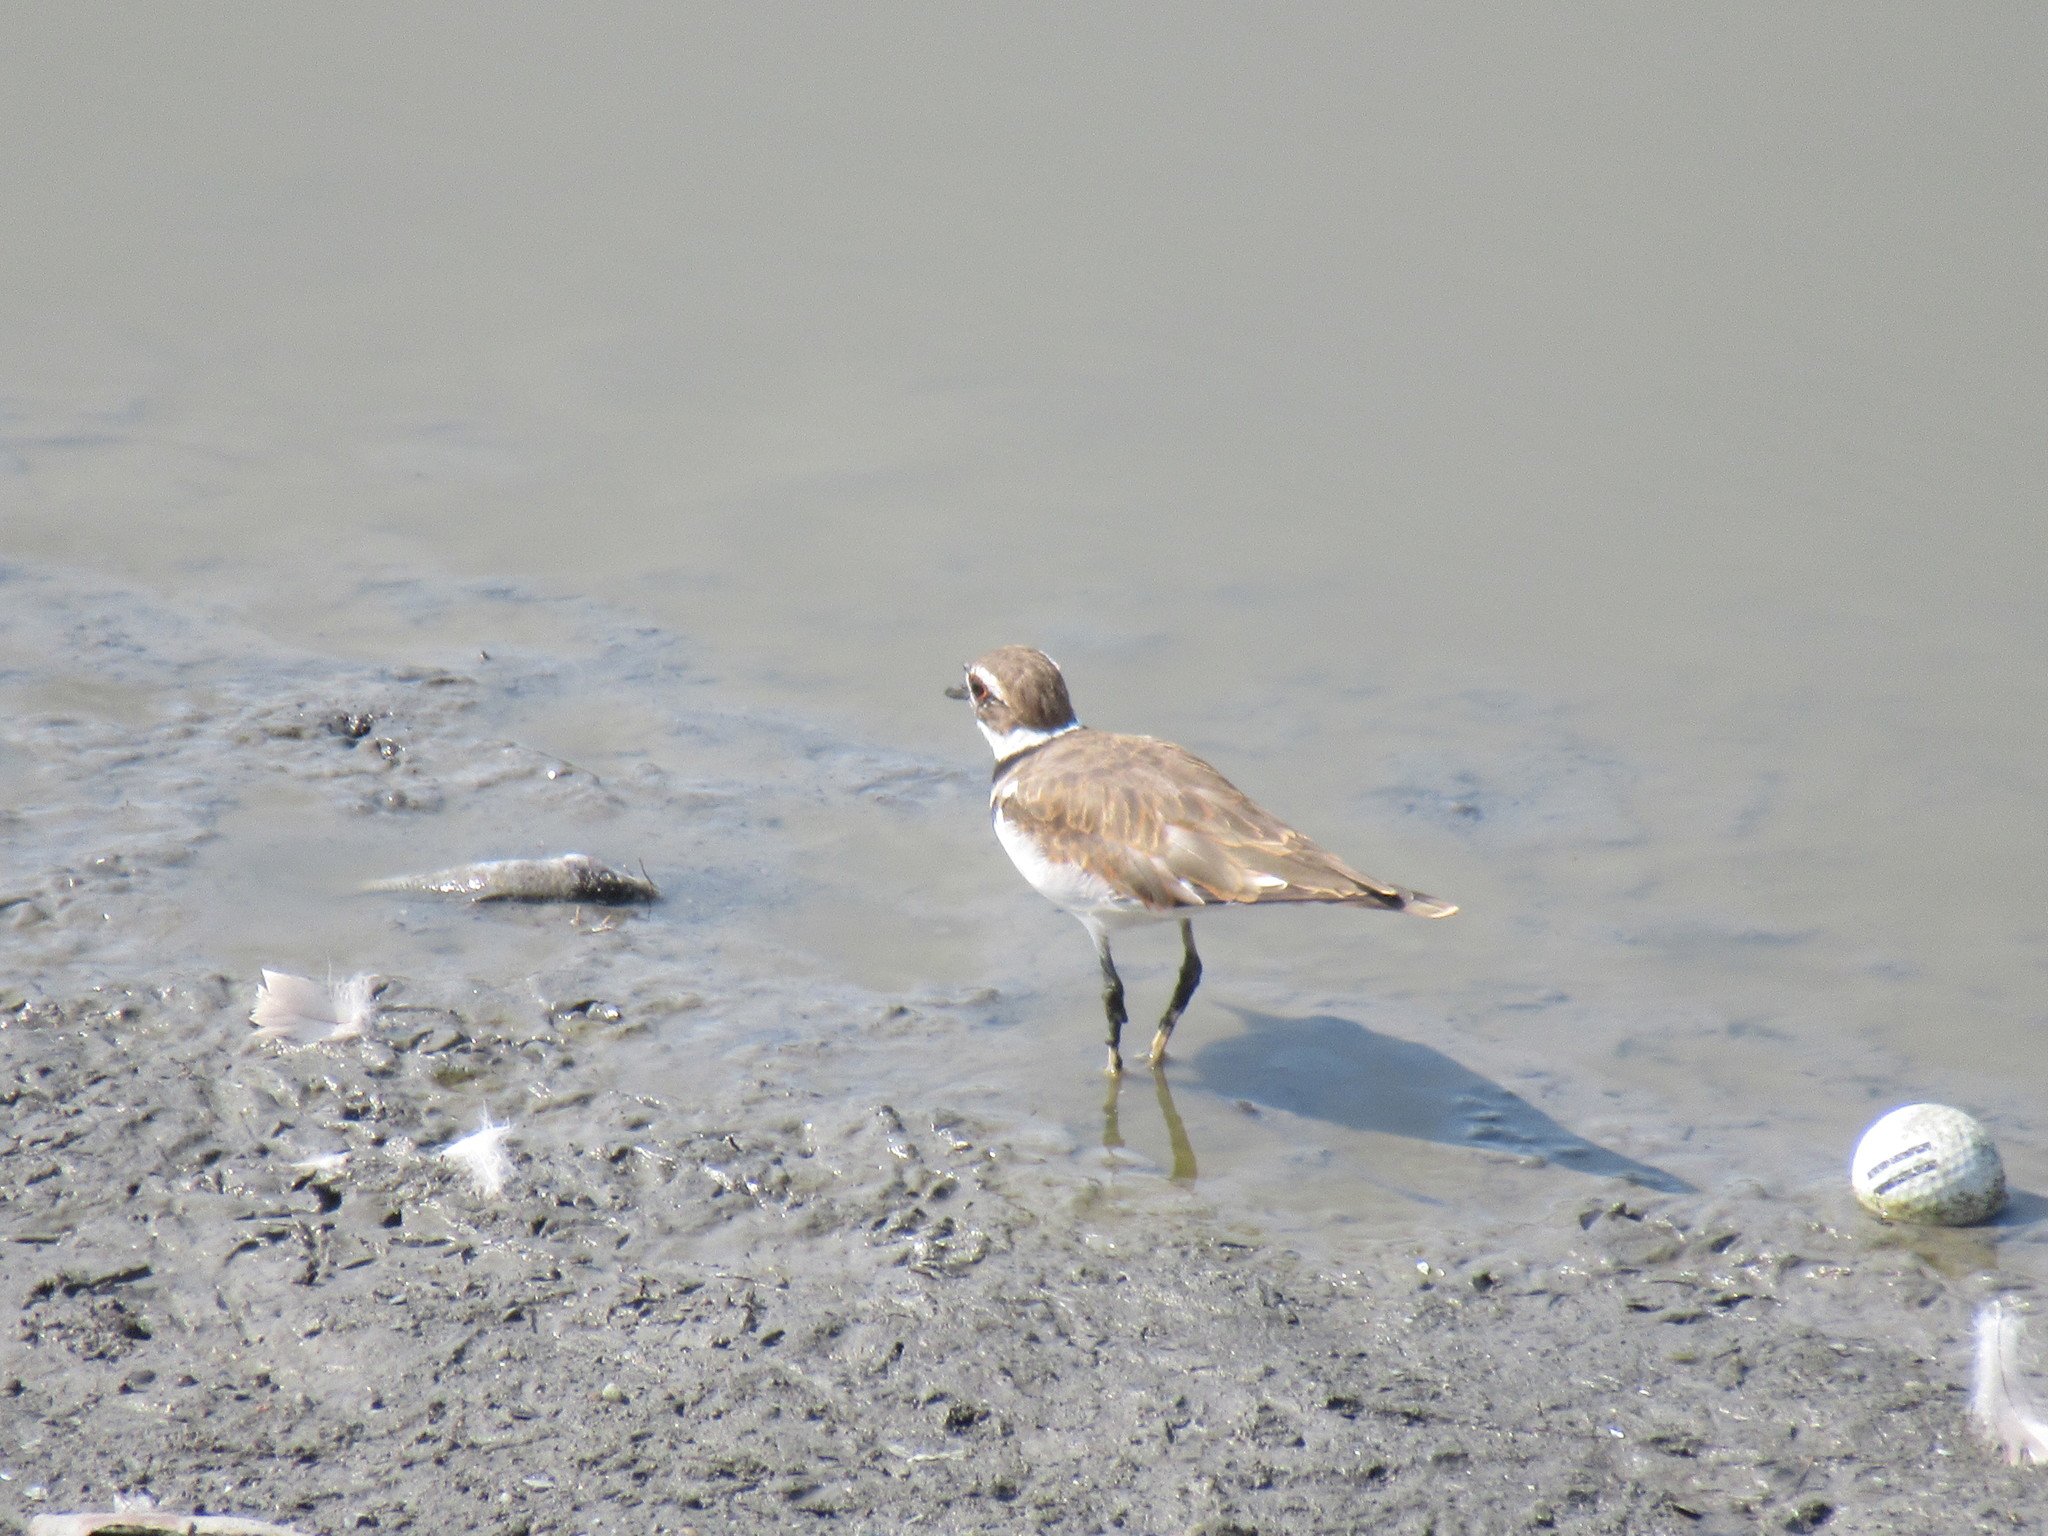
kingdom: Animalia
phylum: Chordata
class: Aves
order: Charadriiformes
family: Charadriidae
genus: Charadrius
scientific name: Charadrius vociferus
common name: Killdeer
